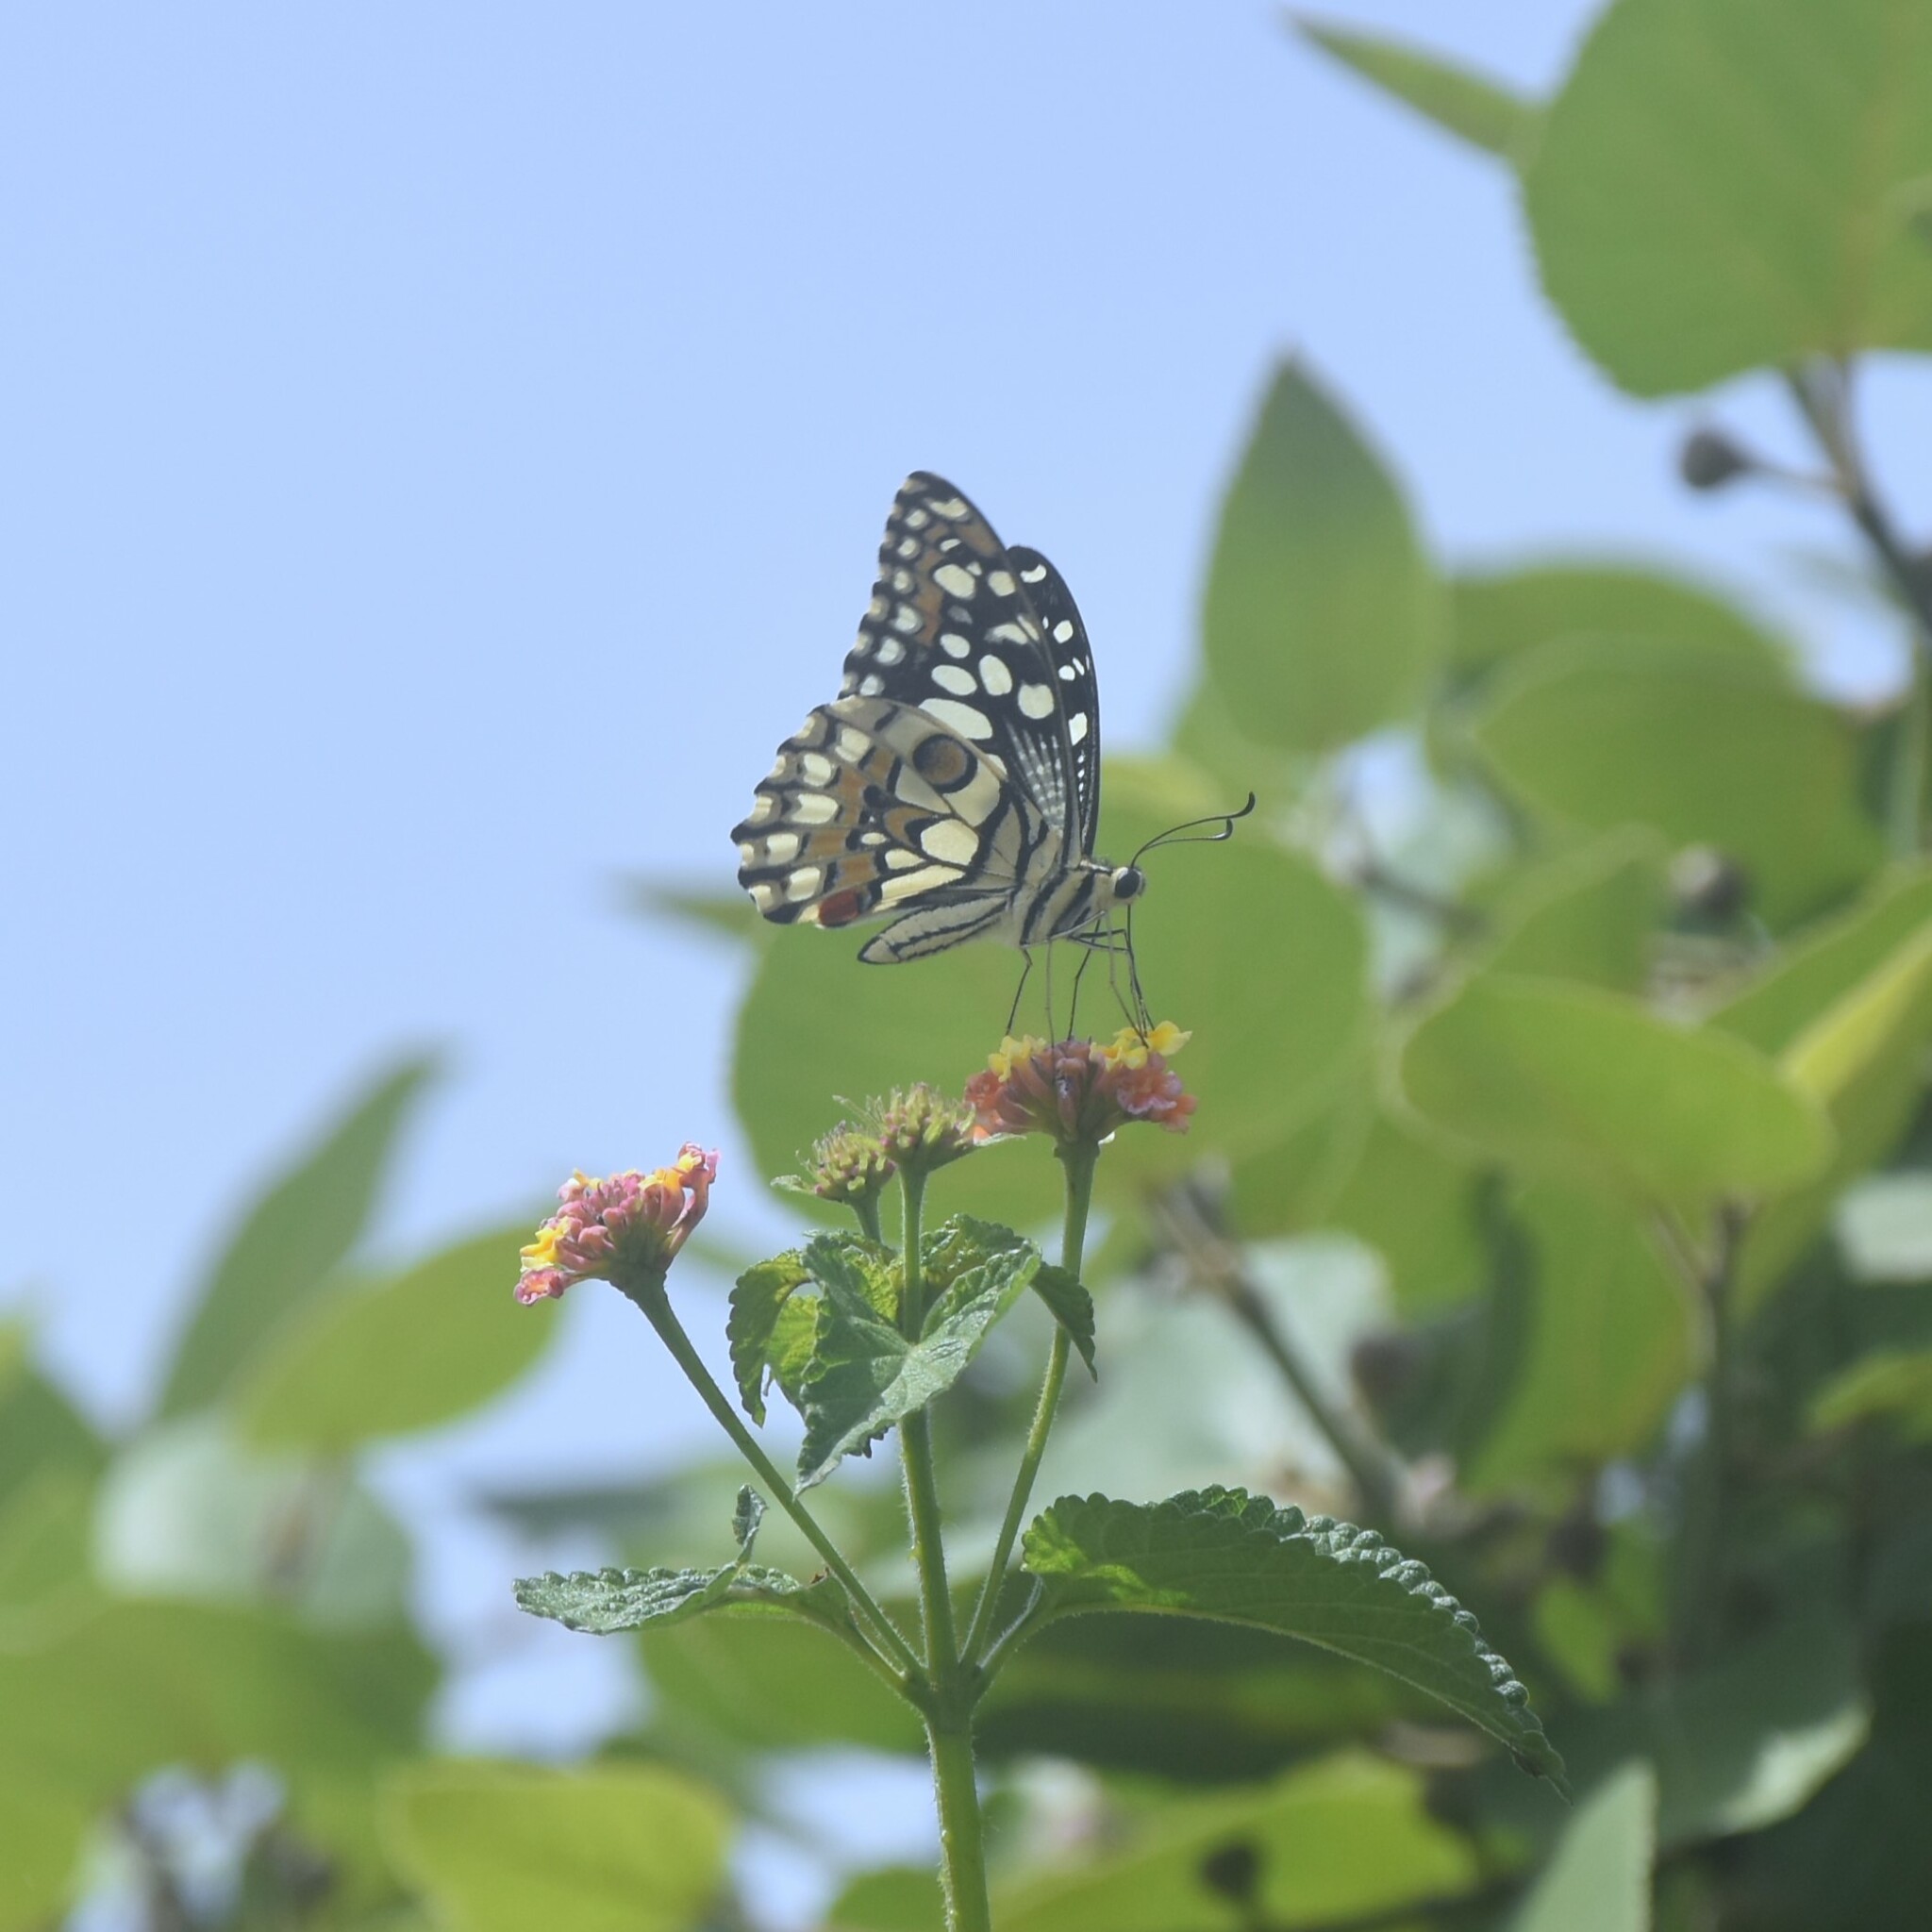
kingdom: Animalia
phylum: Arthropoda
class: Insecta
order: Lepidoptera
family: Papilionidae
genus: Papilio
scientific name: Papilio demoleus
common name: Lime butterfly
